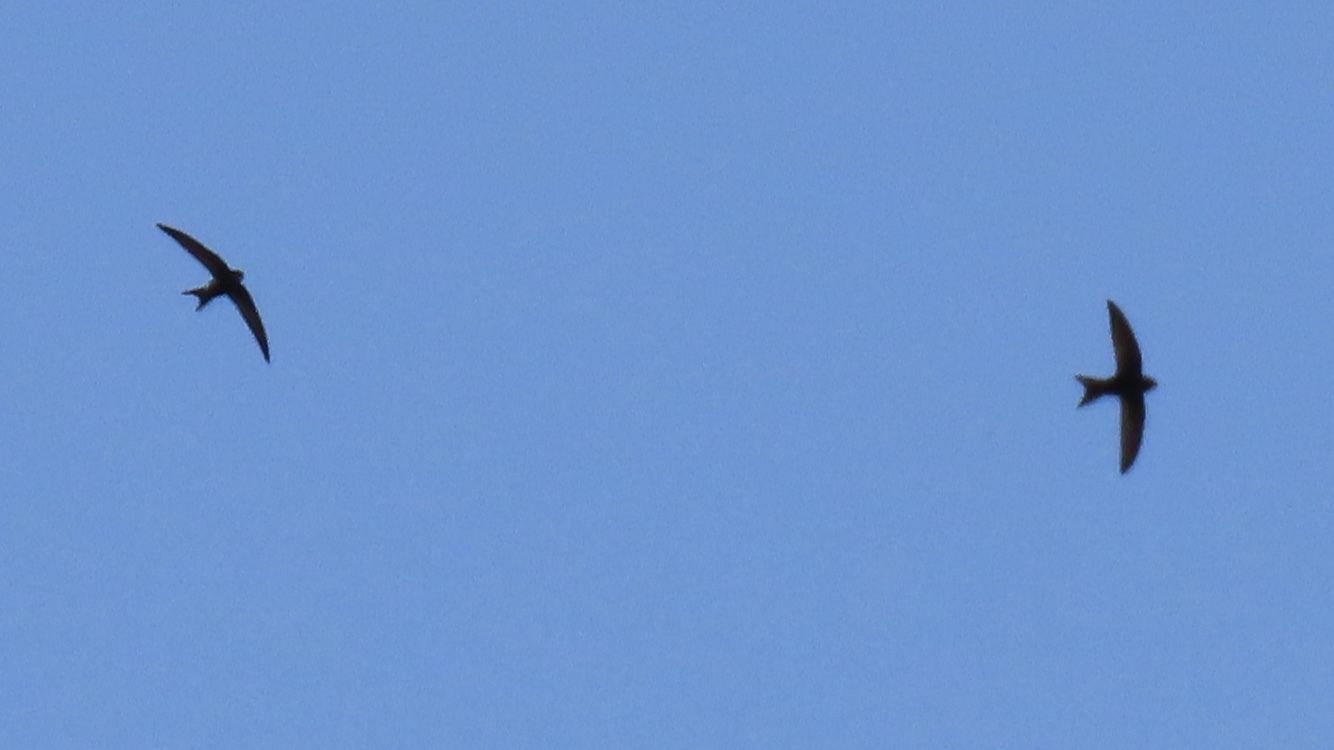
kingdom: Animalia
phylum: Chordata
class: Aves
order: Apodiformes
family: Apodidae
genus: Apus
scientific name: Apus apus
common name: Common swift
